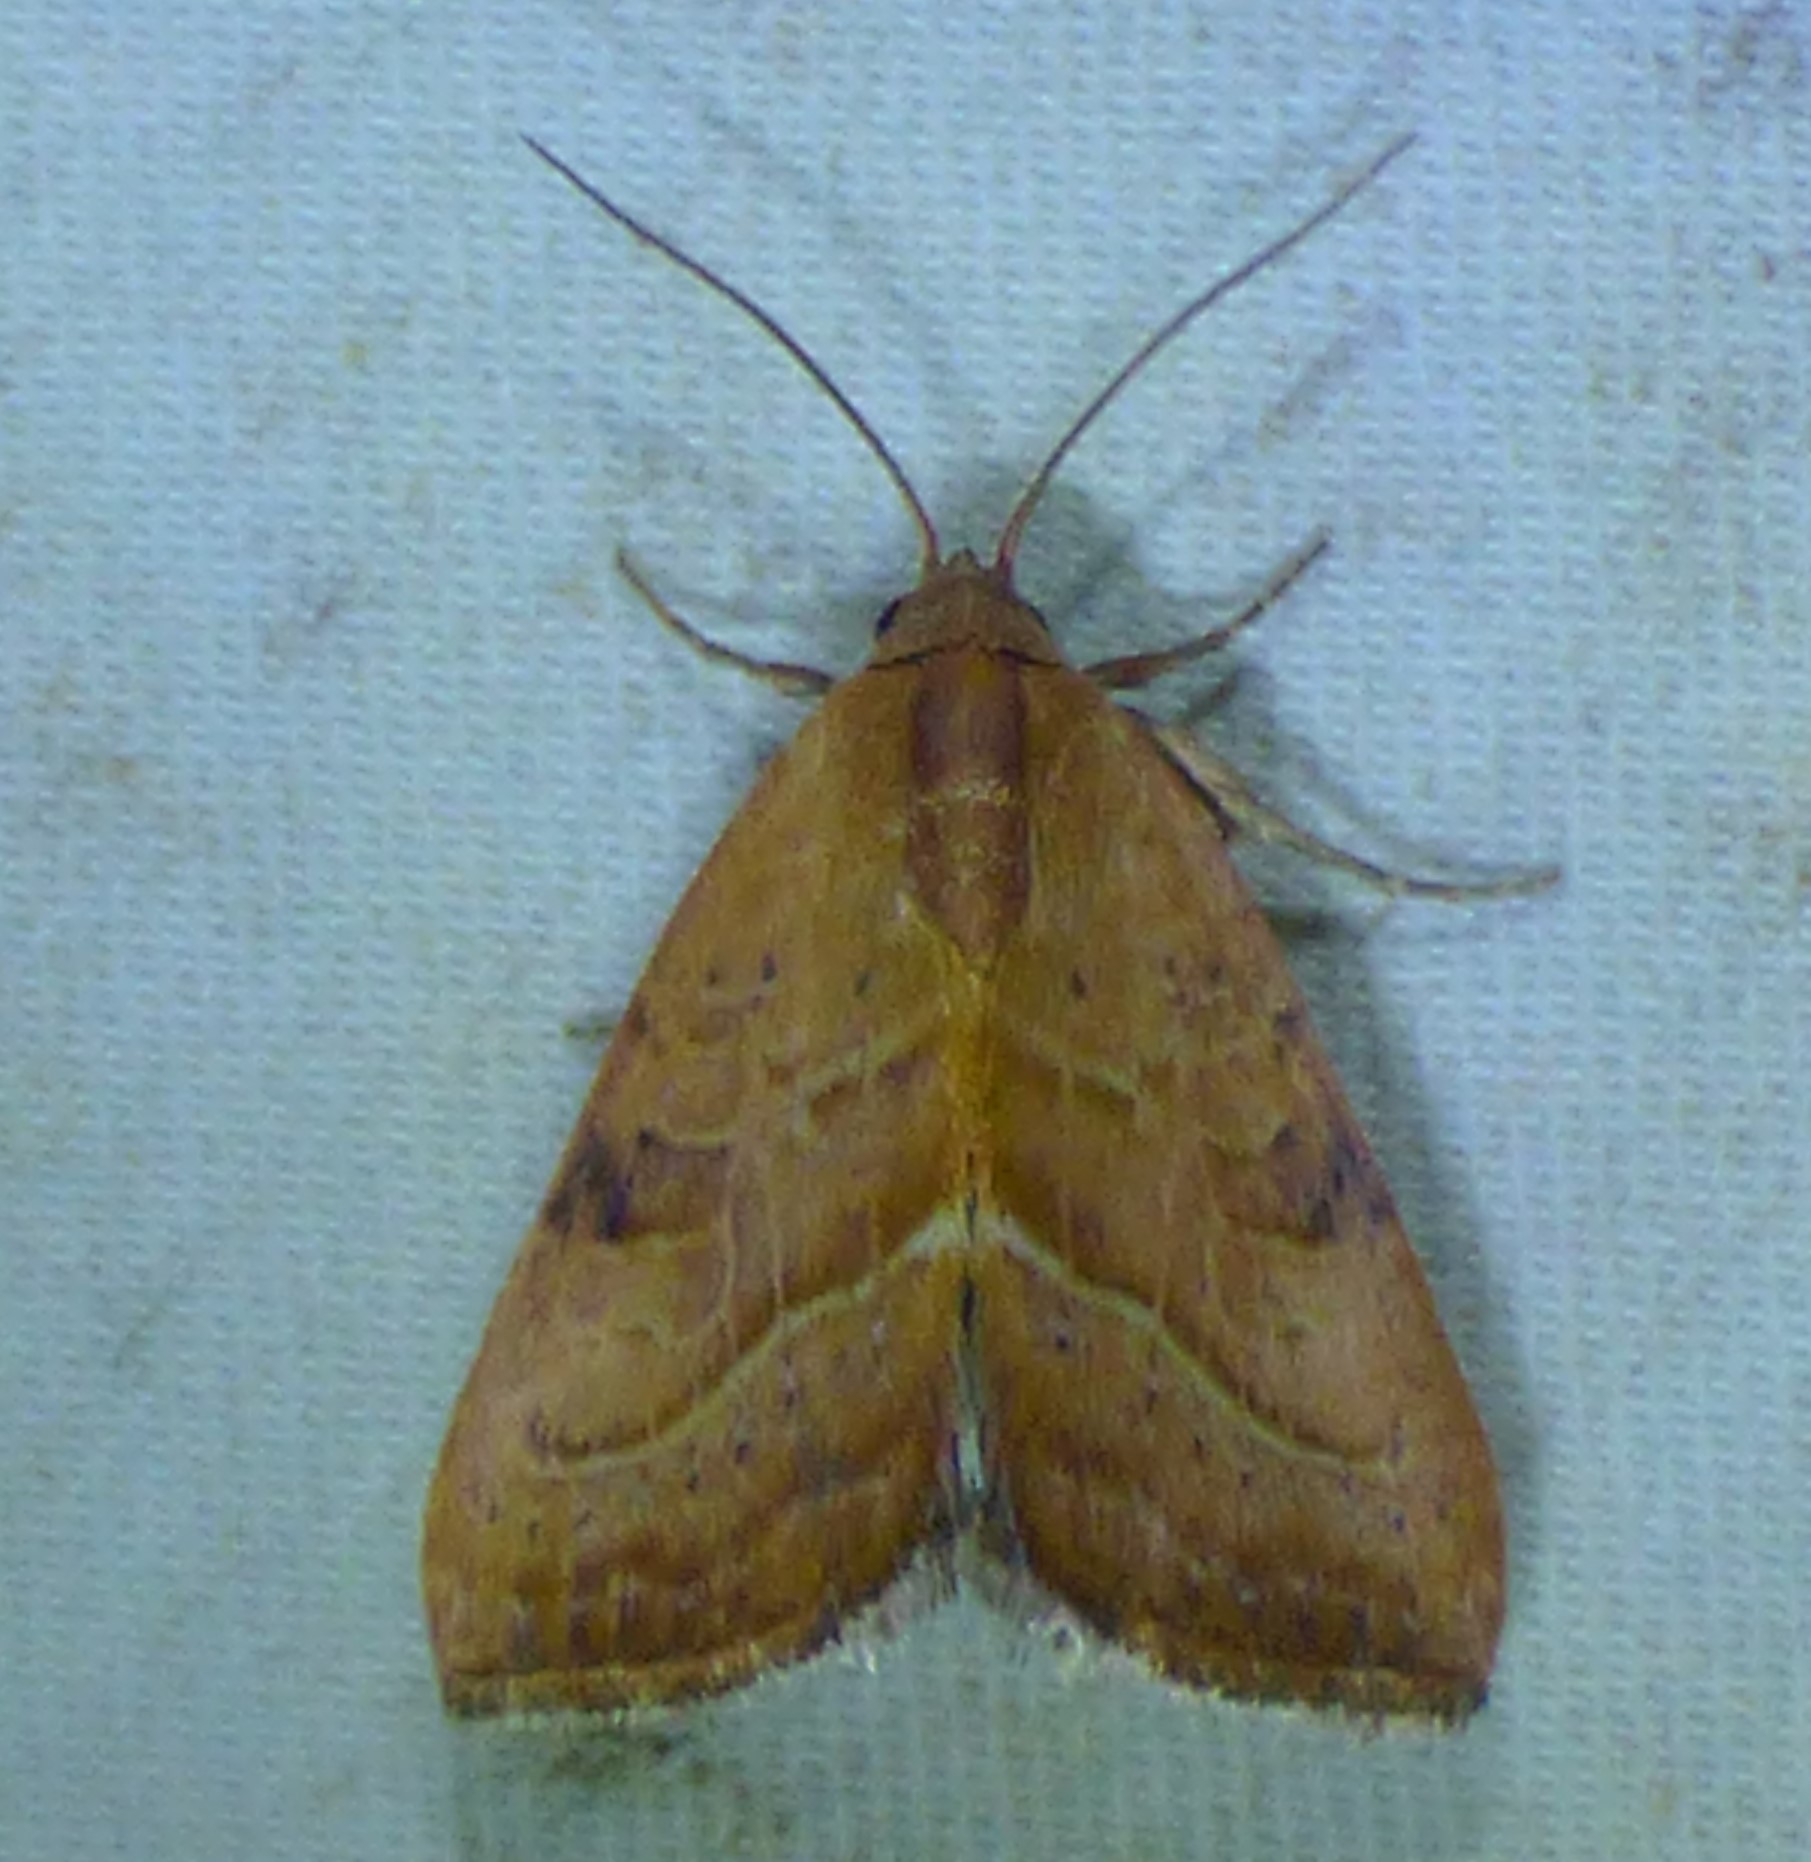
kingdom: Animalia
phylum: Arthropoda
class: Insecta
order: Lepidoptera
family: Noctuidae
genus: Galgula
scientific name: Galgula partita
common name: Wedgeling
